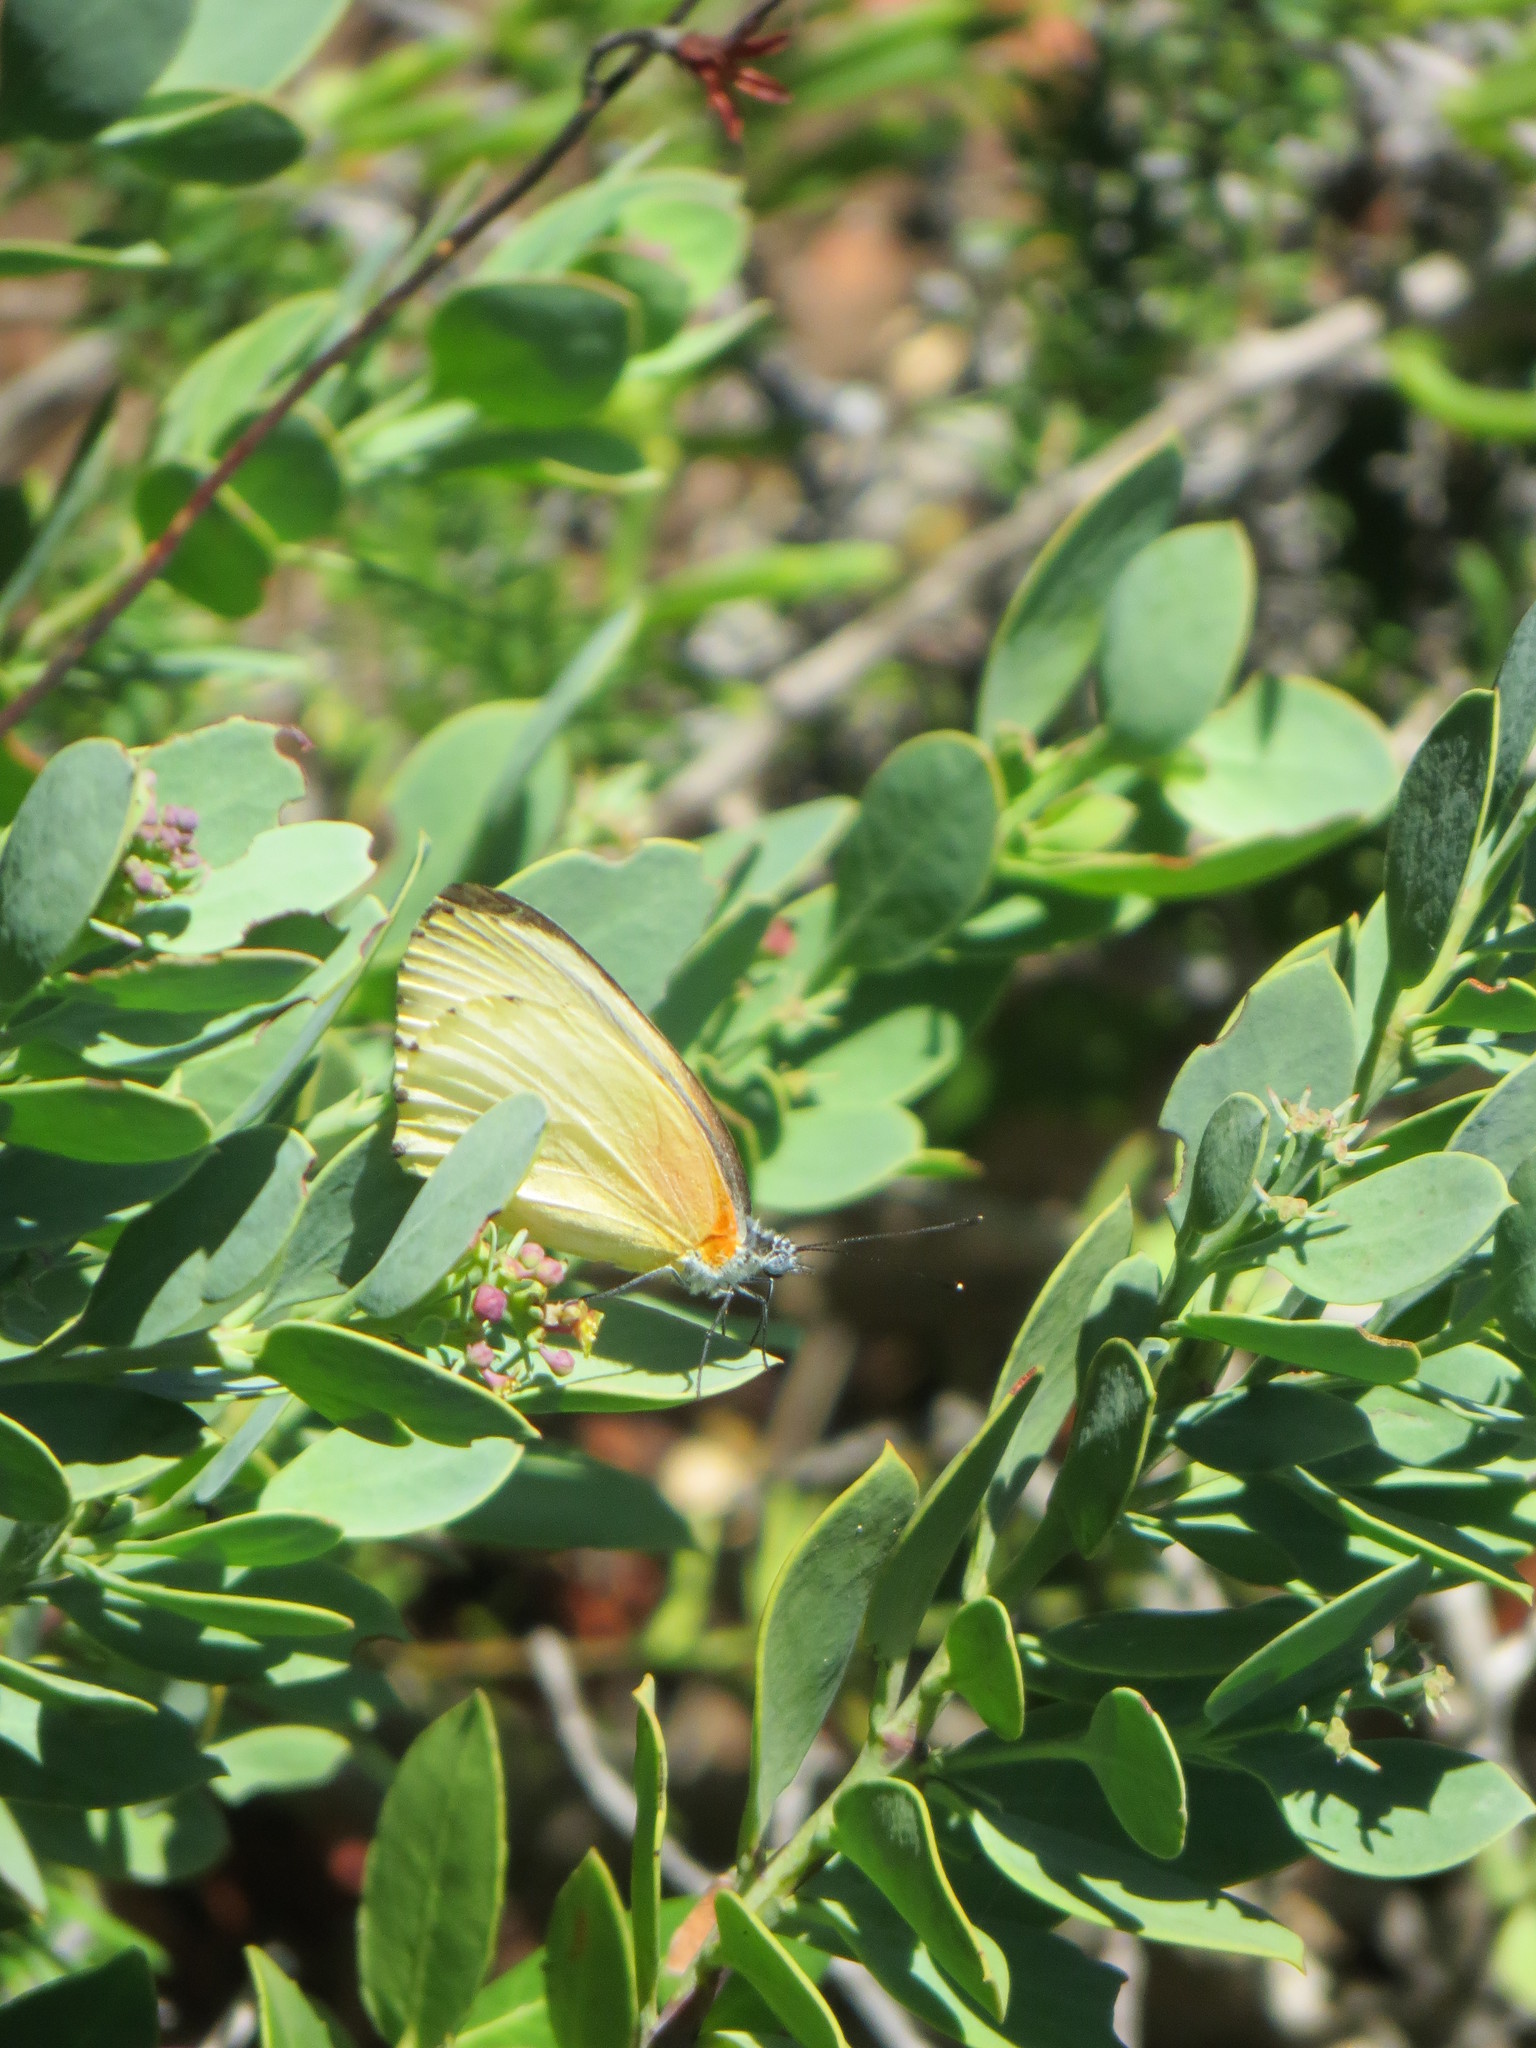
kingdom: Plantae
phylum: Tracheophyta
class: Magnoliopsida
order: Santalales
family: Santalaceae
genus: Osyris
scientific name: Osyris compressa
